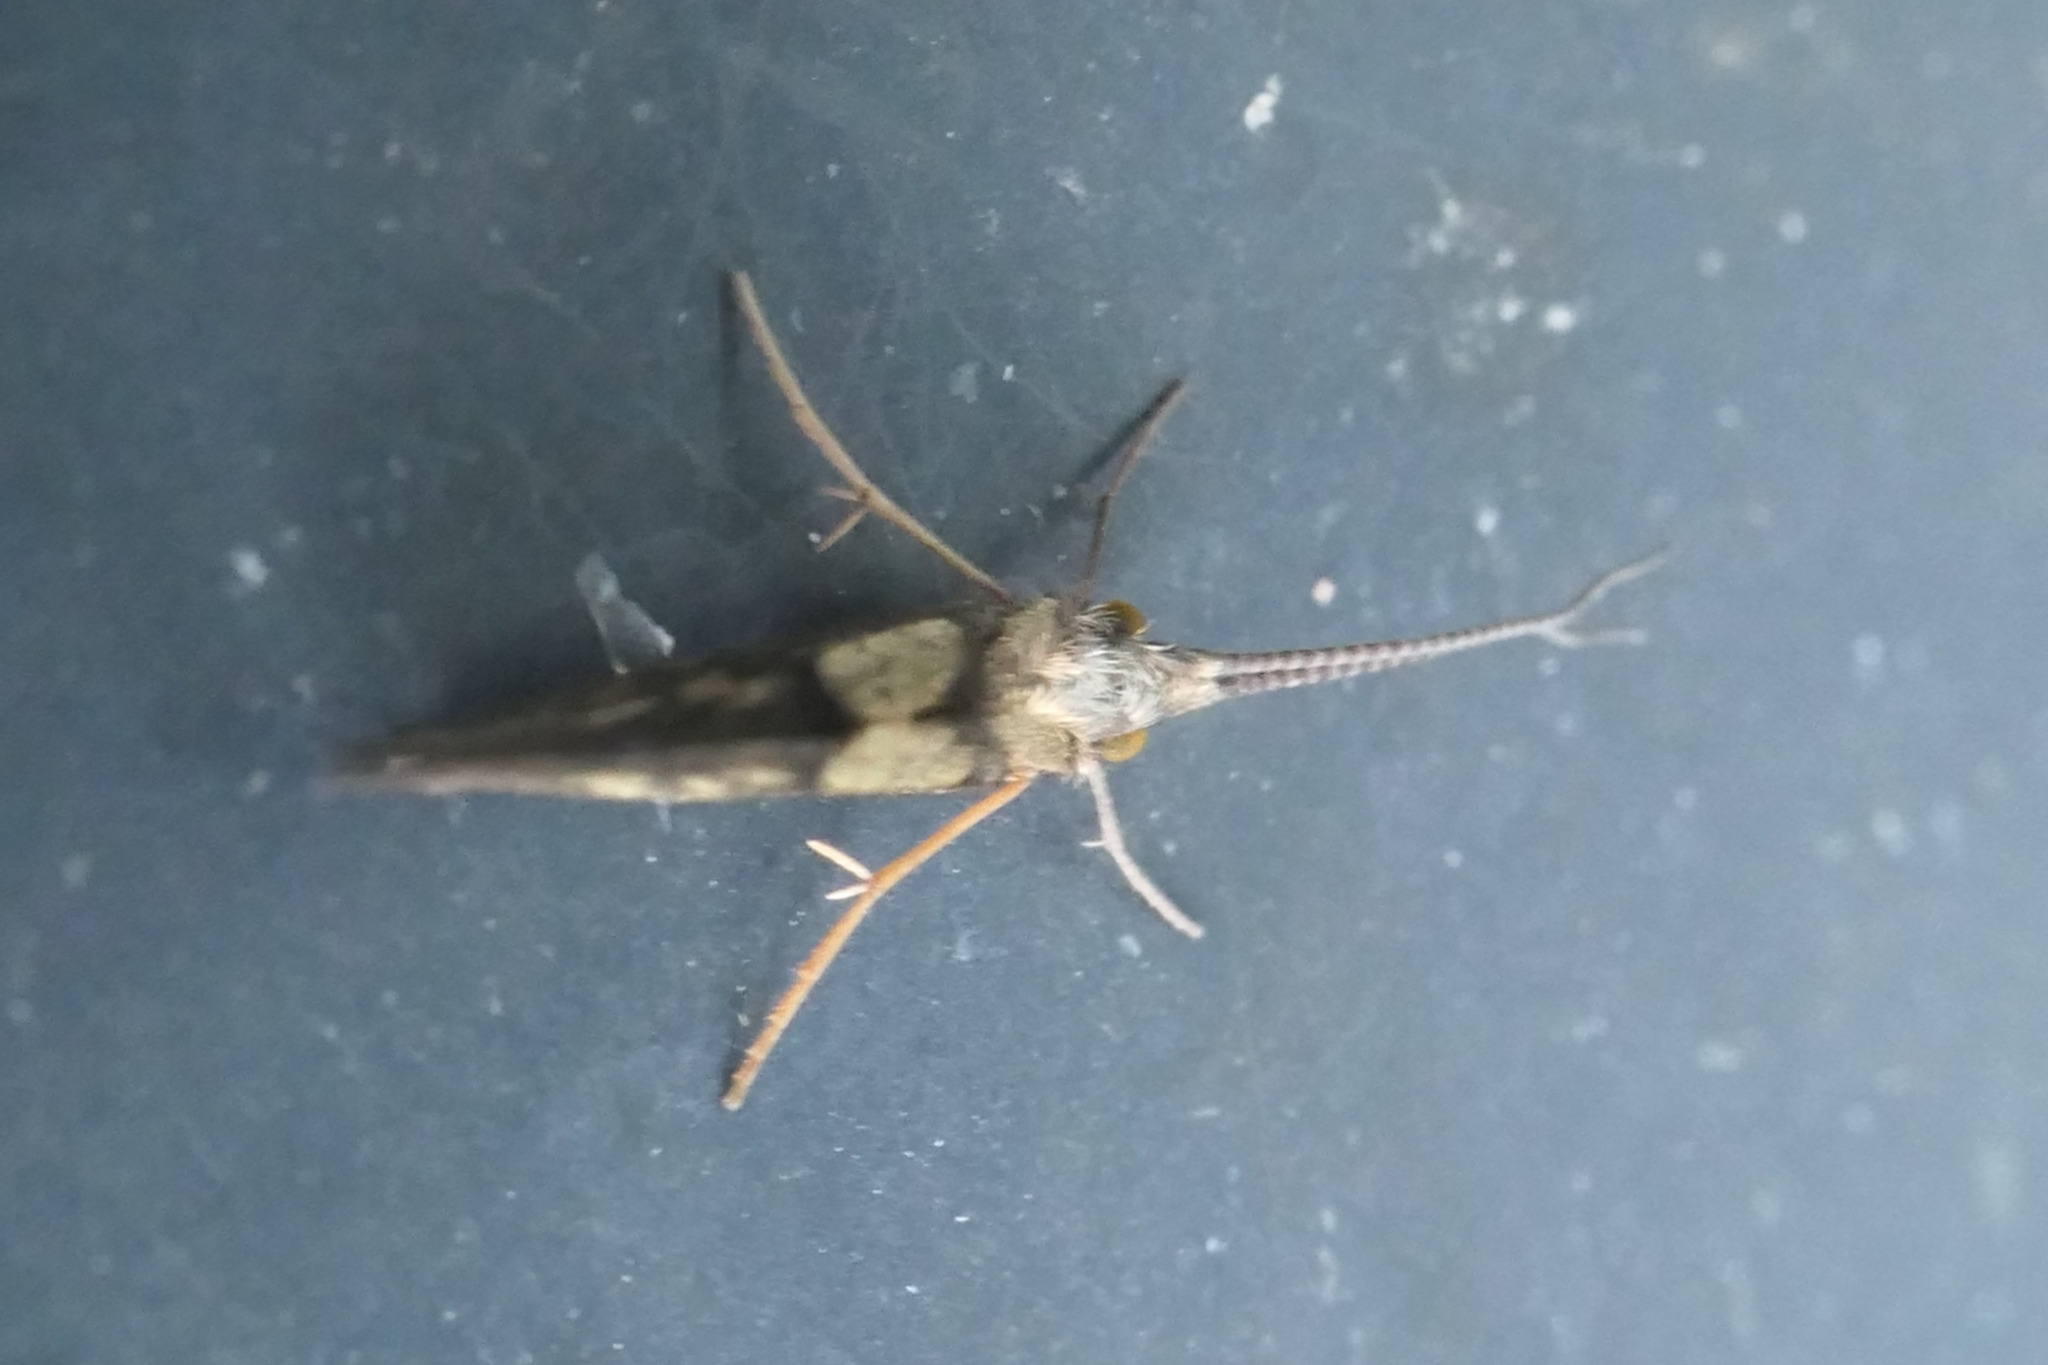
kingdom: Animalia
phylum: Arthropoda
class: Insecta
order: Trichoptera
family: Conoesucidae
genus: Pycnocentrodes
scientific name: Pycnocentrodes aureolus
